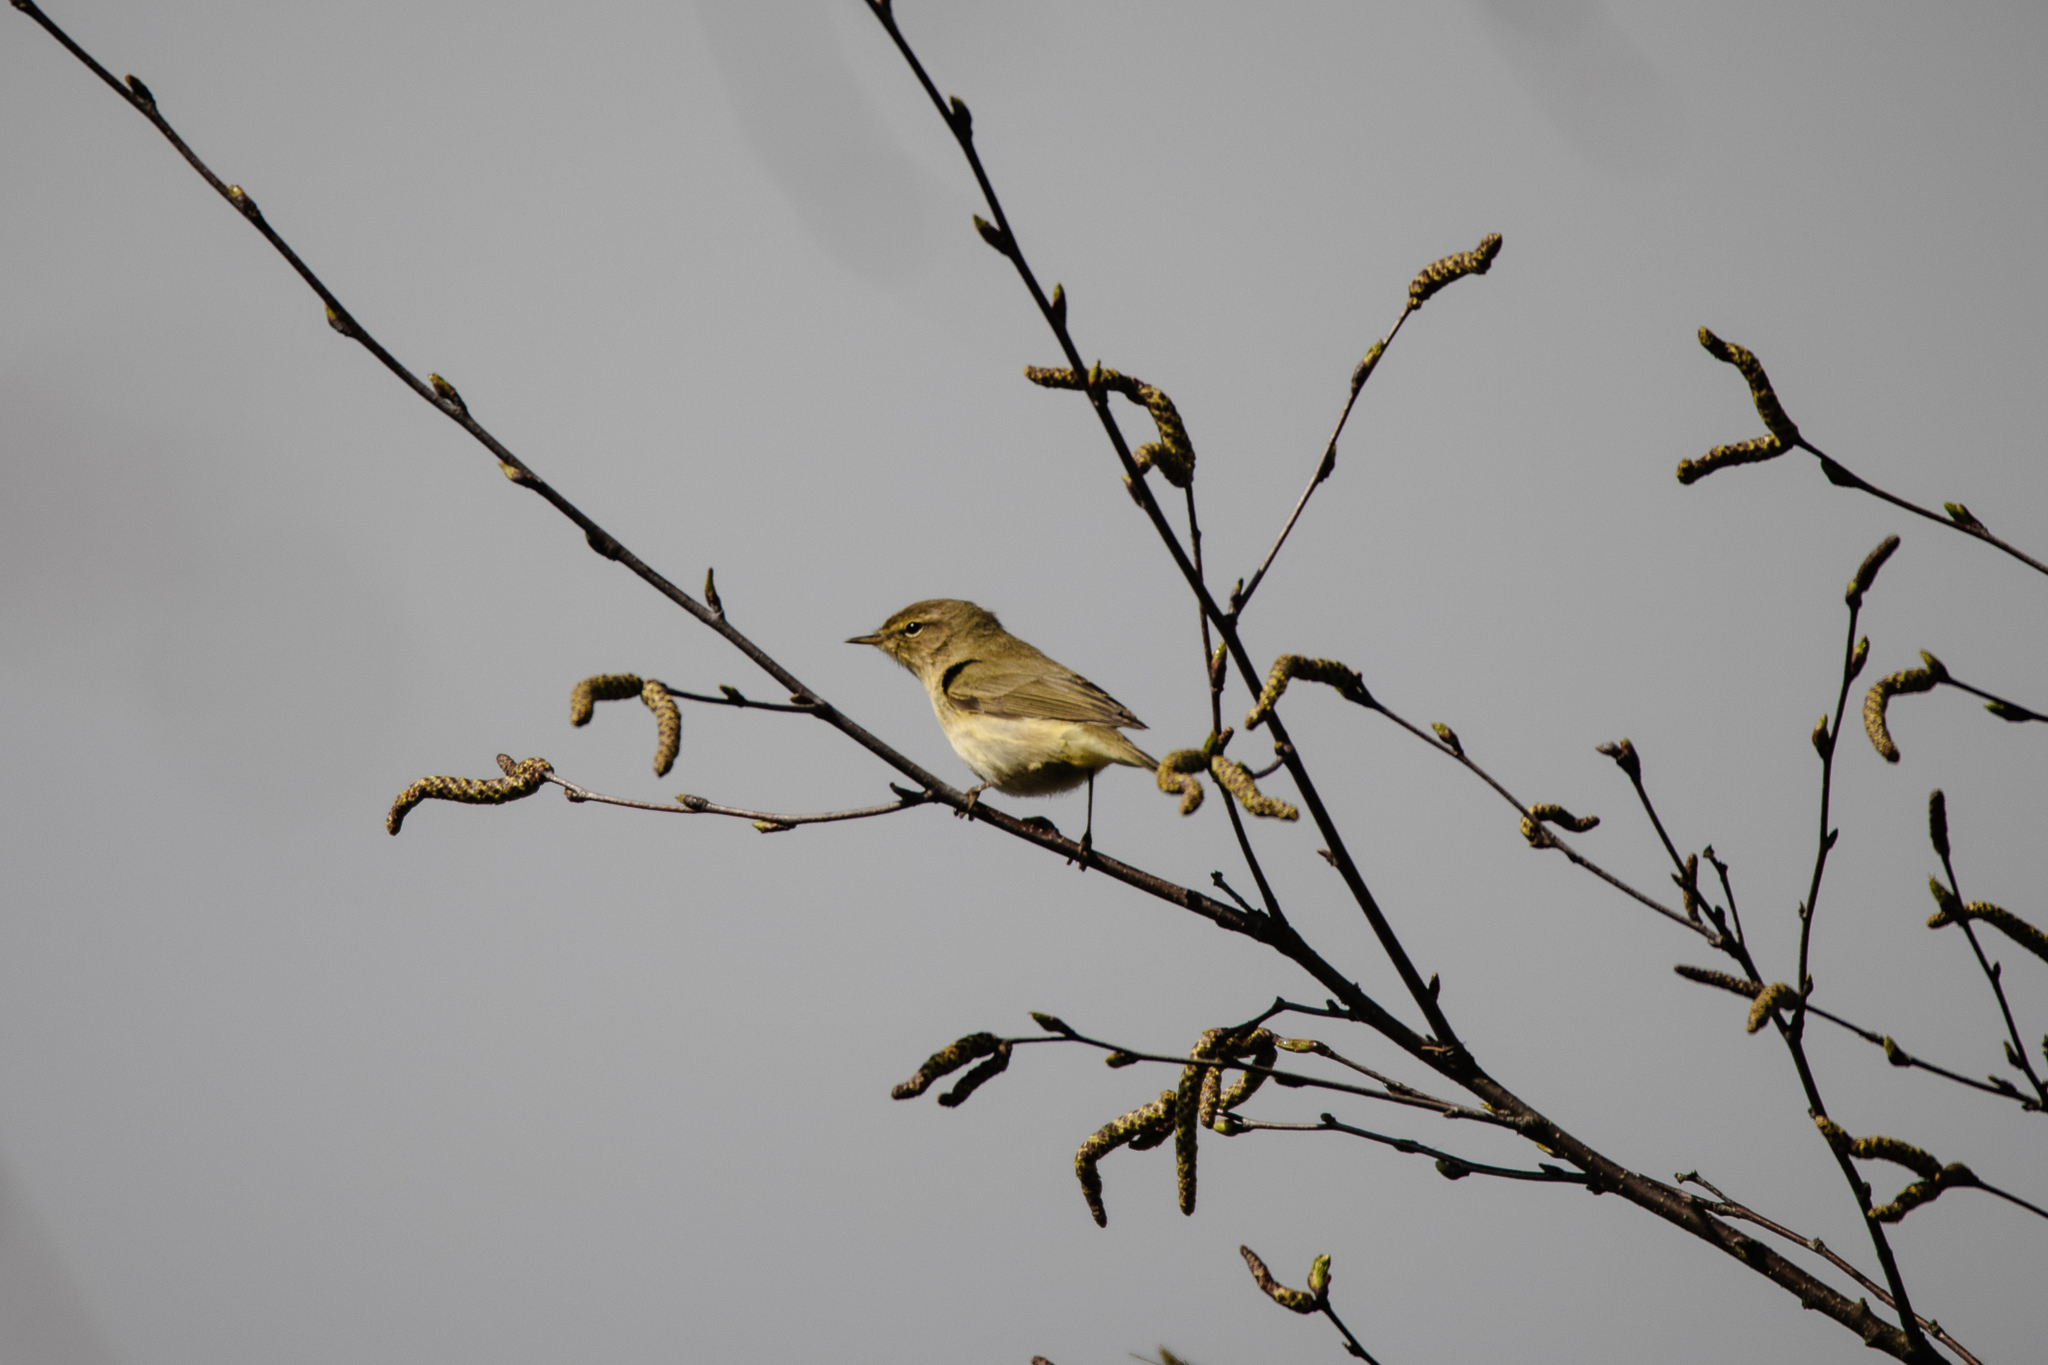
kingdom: Animalia
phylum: Chordata
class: Aves
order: Passeriformes
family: Phylloscopidae
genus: Phylloscopus
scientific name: Phylloscopus collybita
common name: Common chiffchaff
